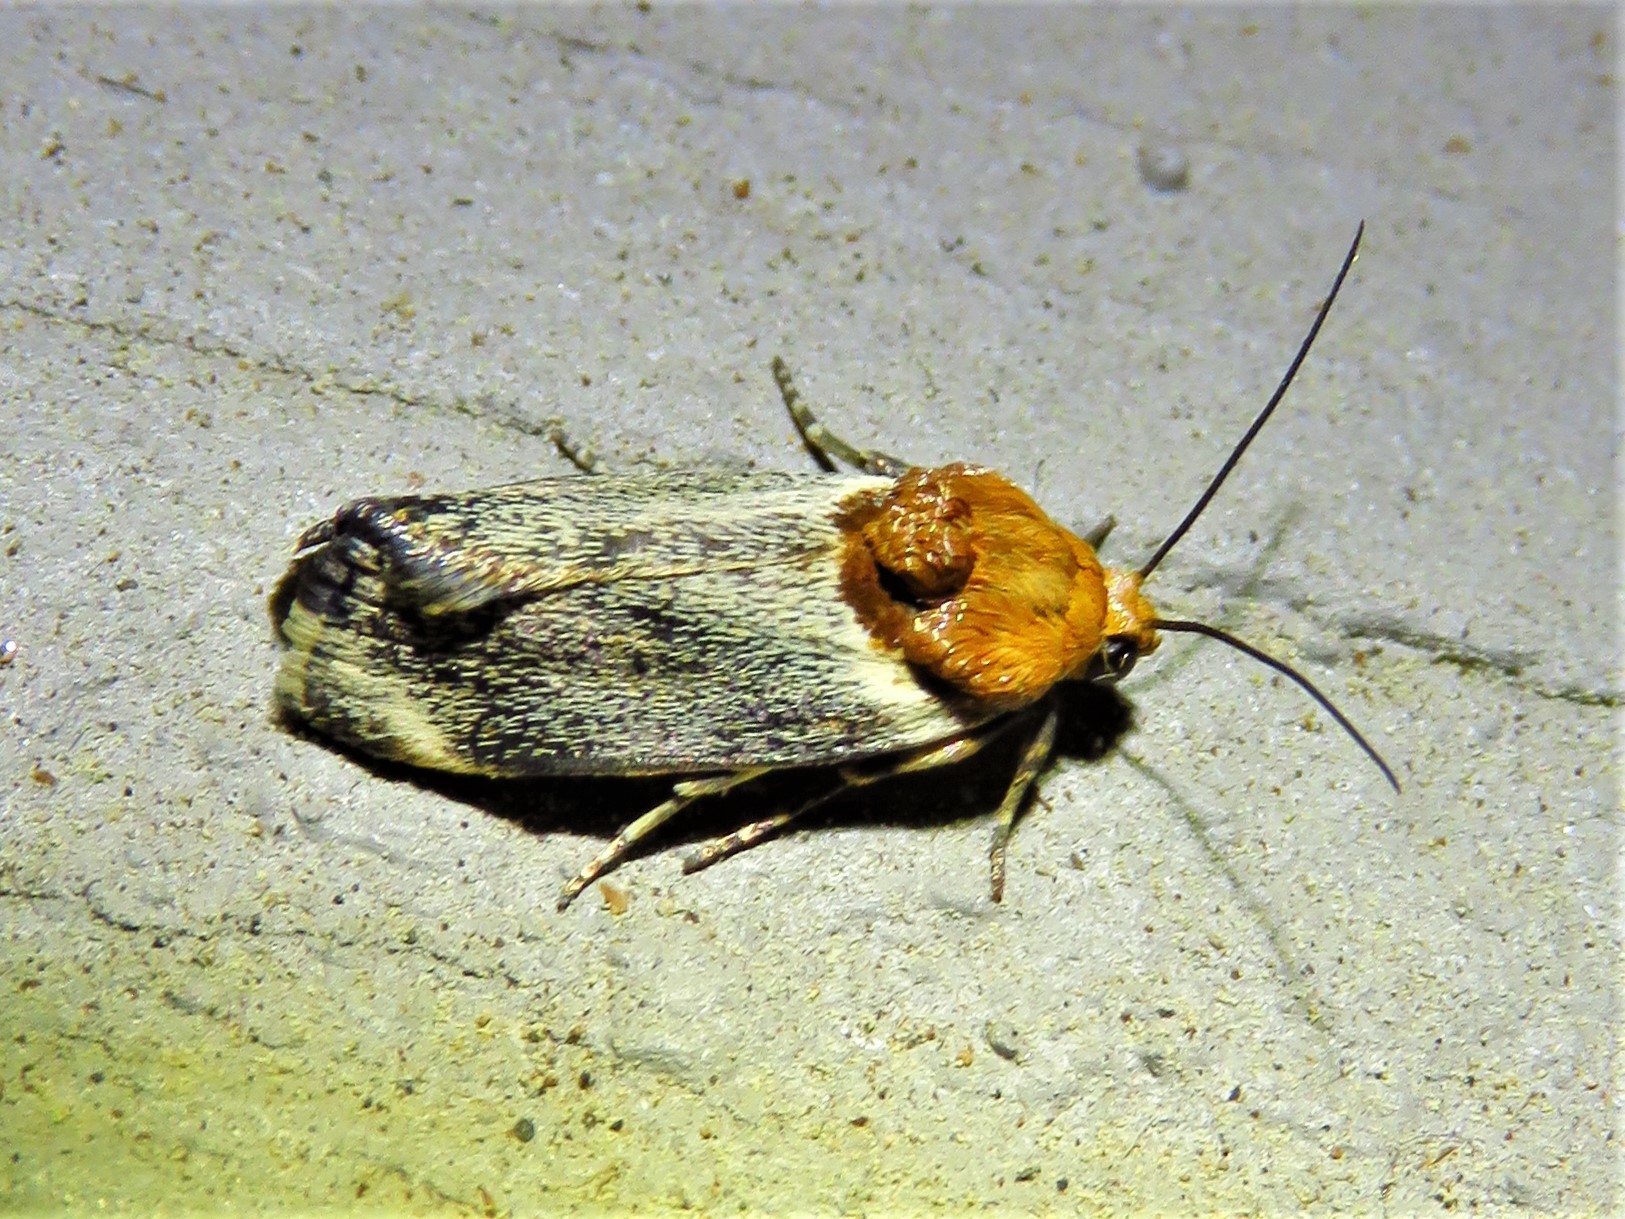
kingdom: Animalia
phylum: Arthropoda
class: Insecta
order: Lepidoptera
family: Noctuidae
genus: Spragueia
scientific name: Spragueia apicalis
